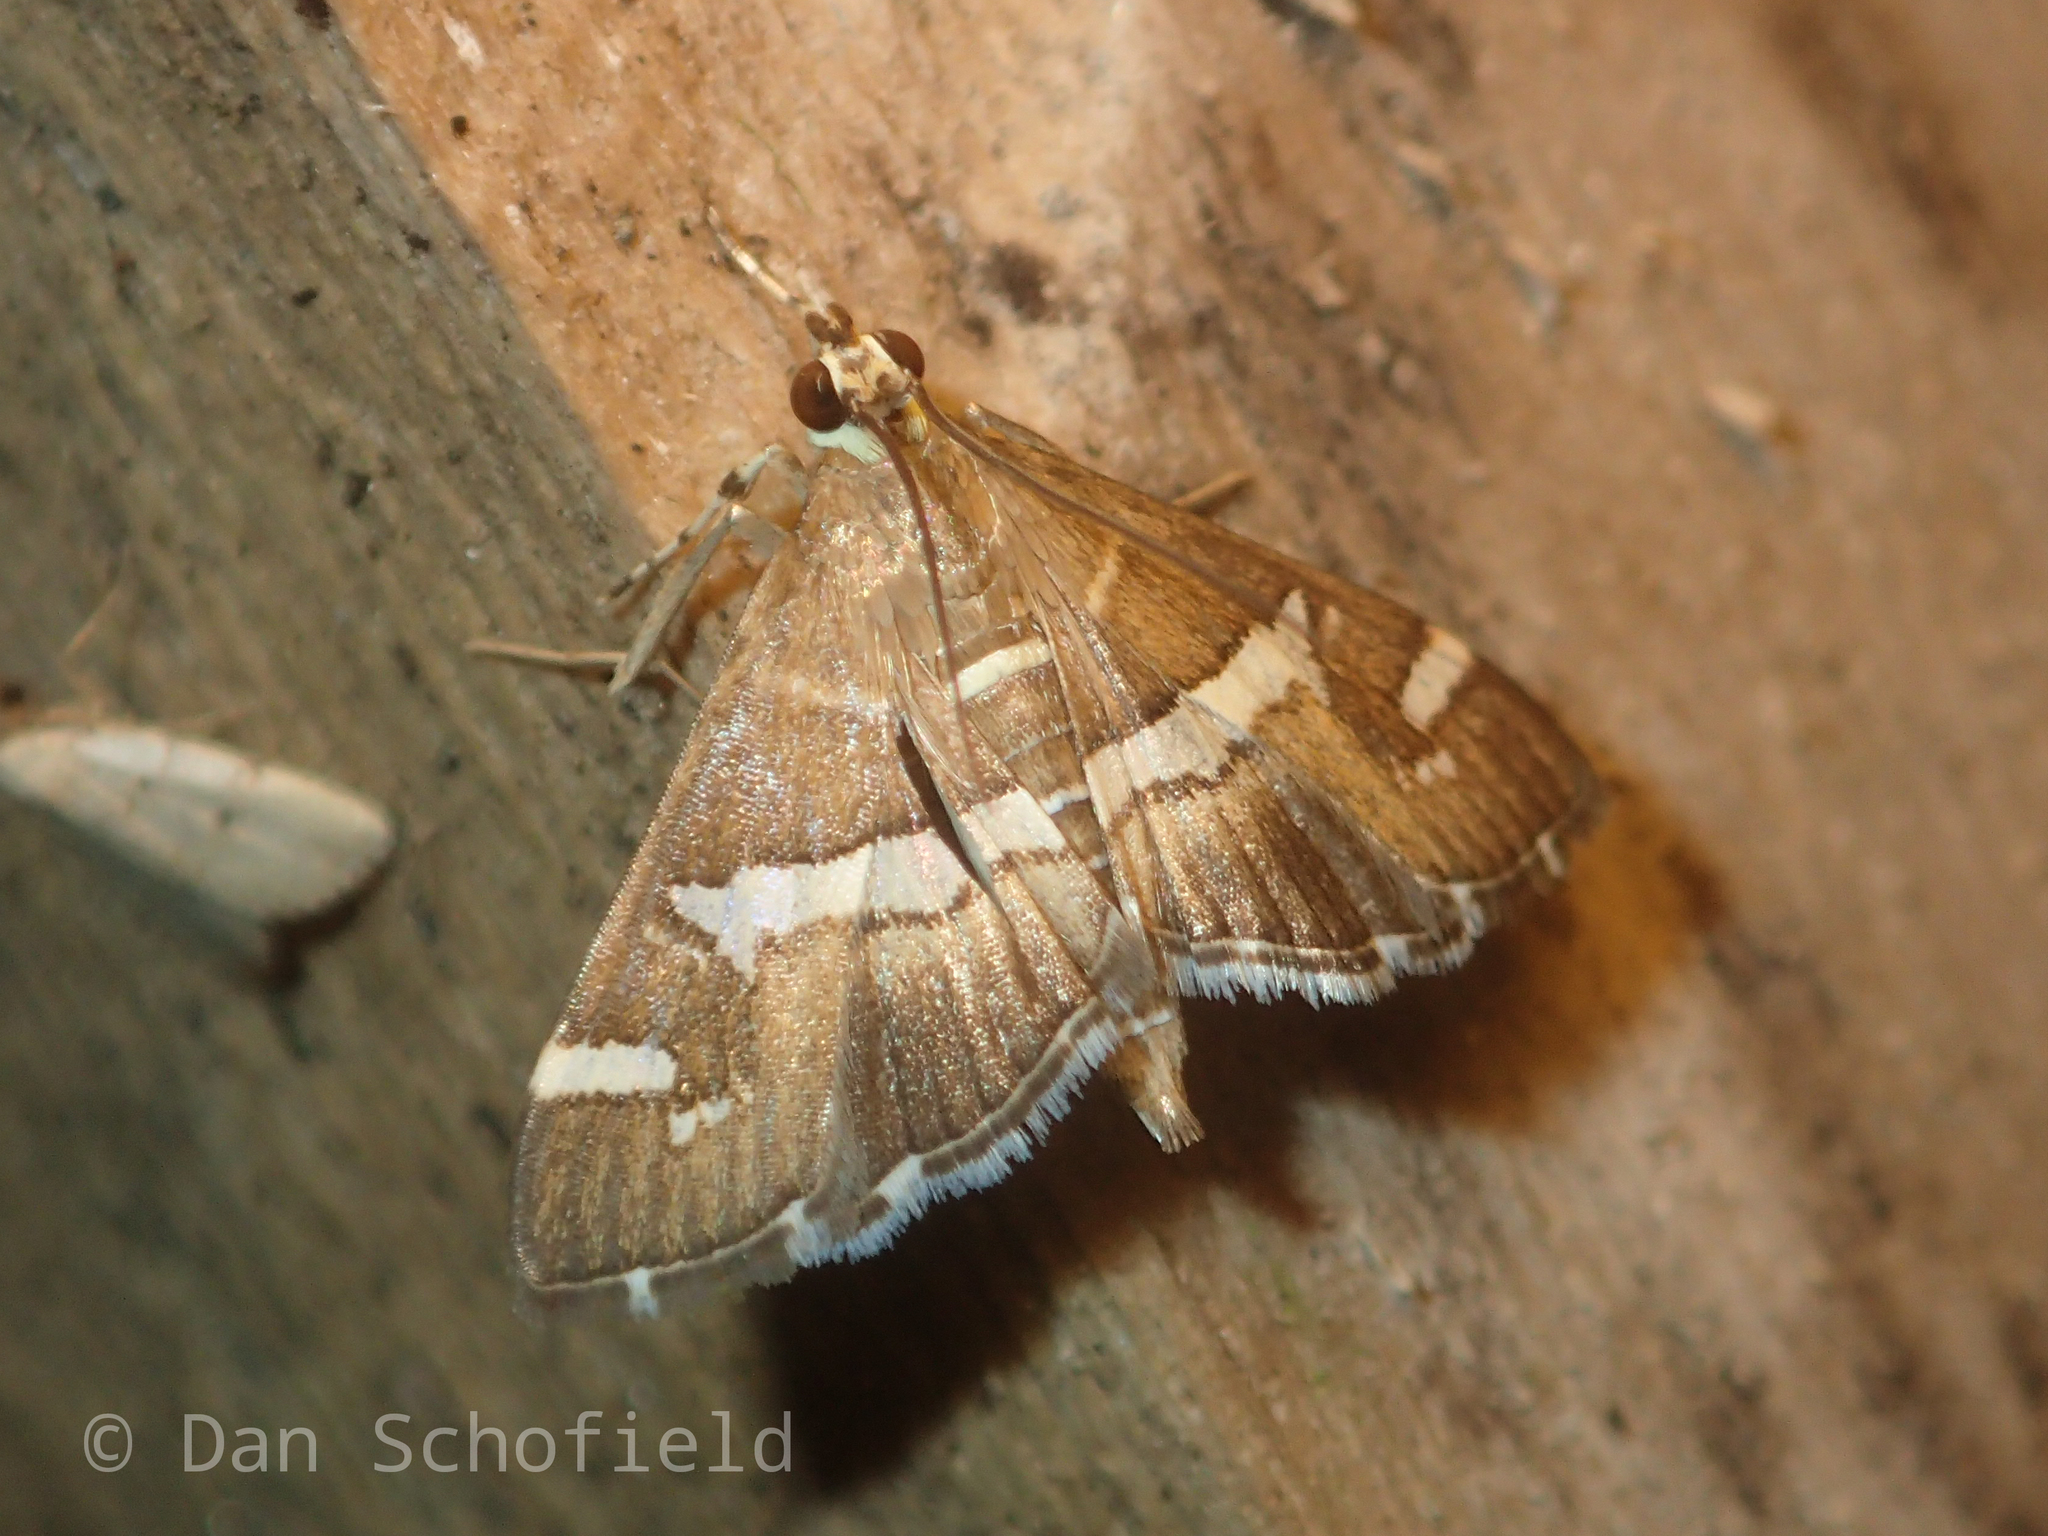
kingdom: Animalia
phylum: Arthropoda
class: Insecta
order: Lepidoptera
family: Crambidae
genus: Spoladea
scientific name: Spoladea recurvalis
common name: Beet webworm moth
